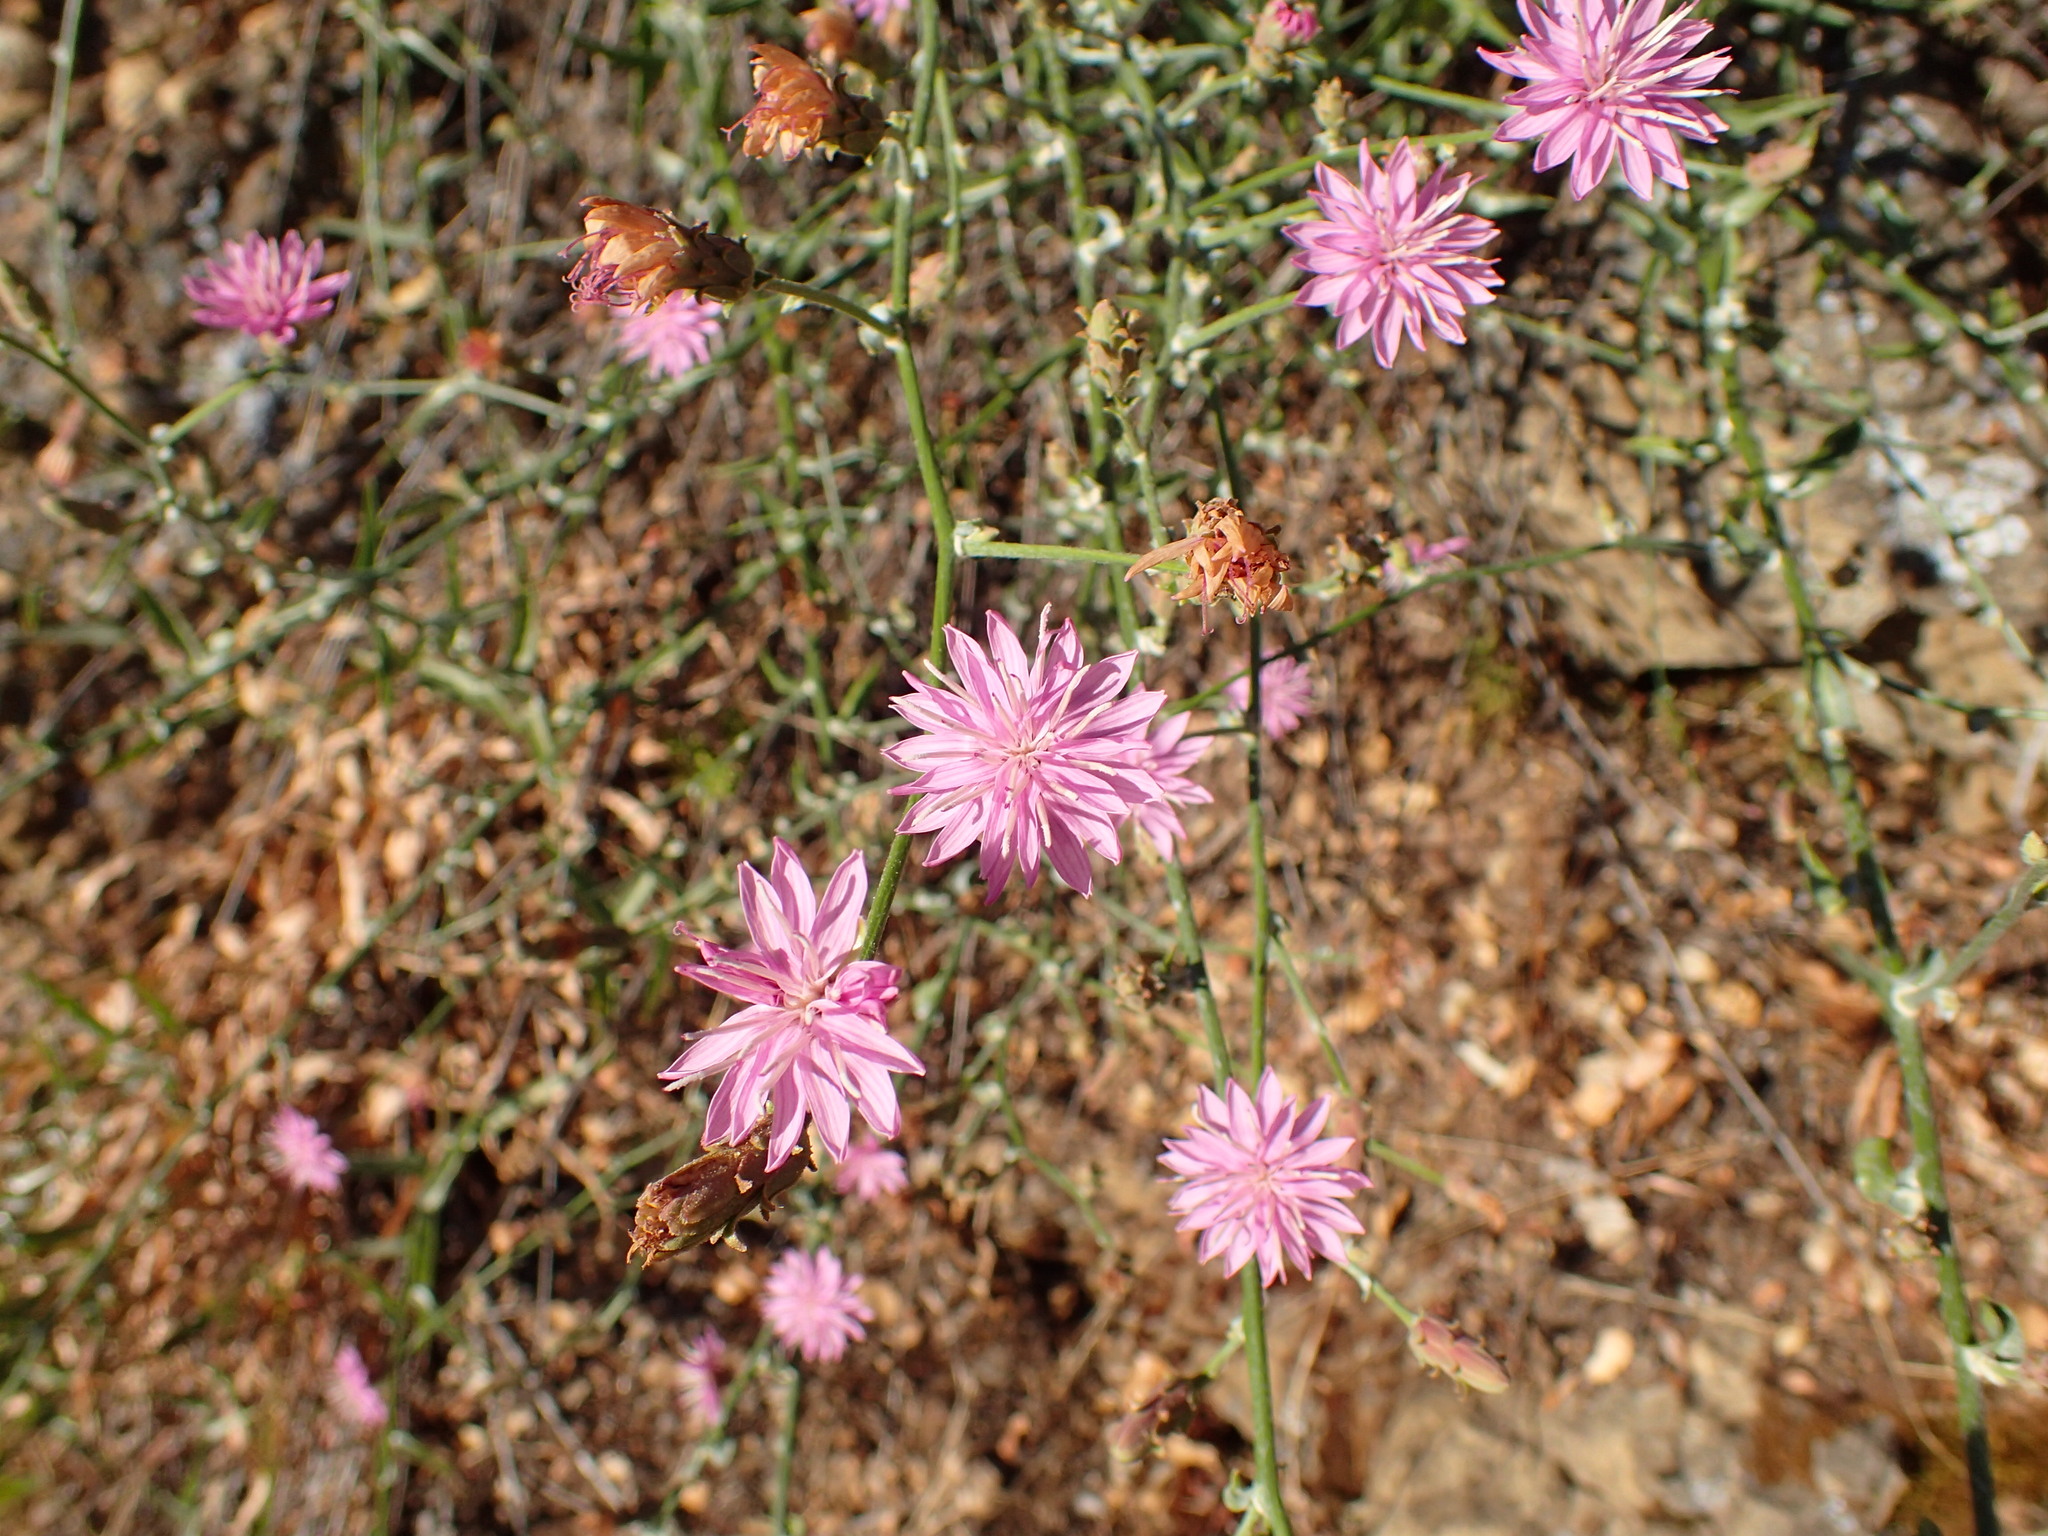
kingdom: Plantae
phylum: Tracheophyta
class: Magnoliopsida
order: Asterales
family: Asteraceae
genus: Stephanomeria
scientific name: Stephanomeria cichoriacea
